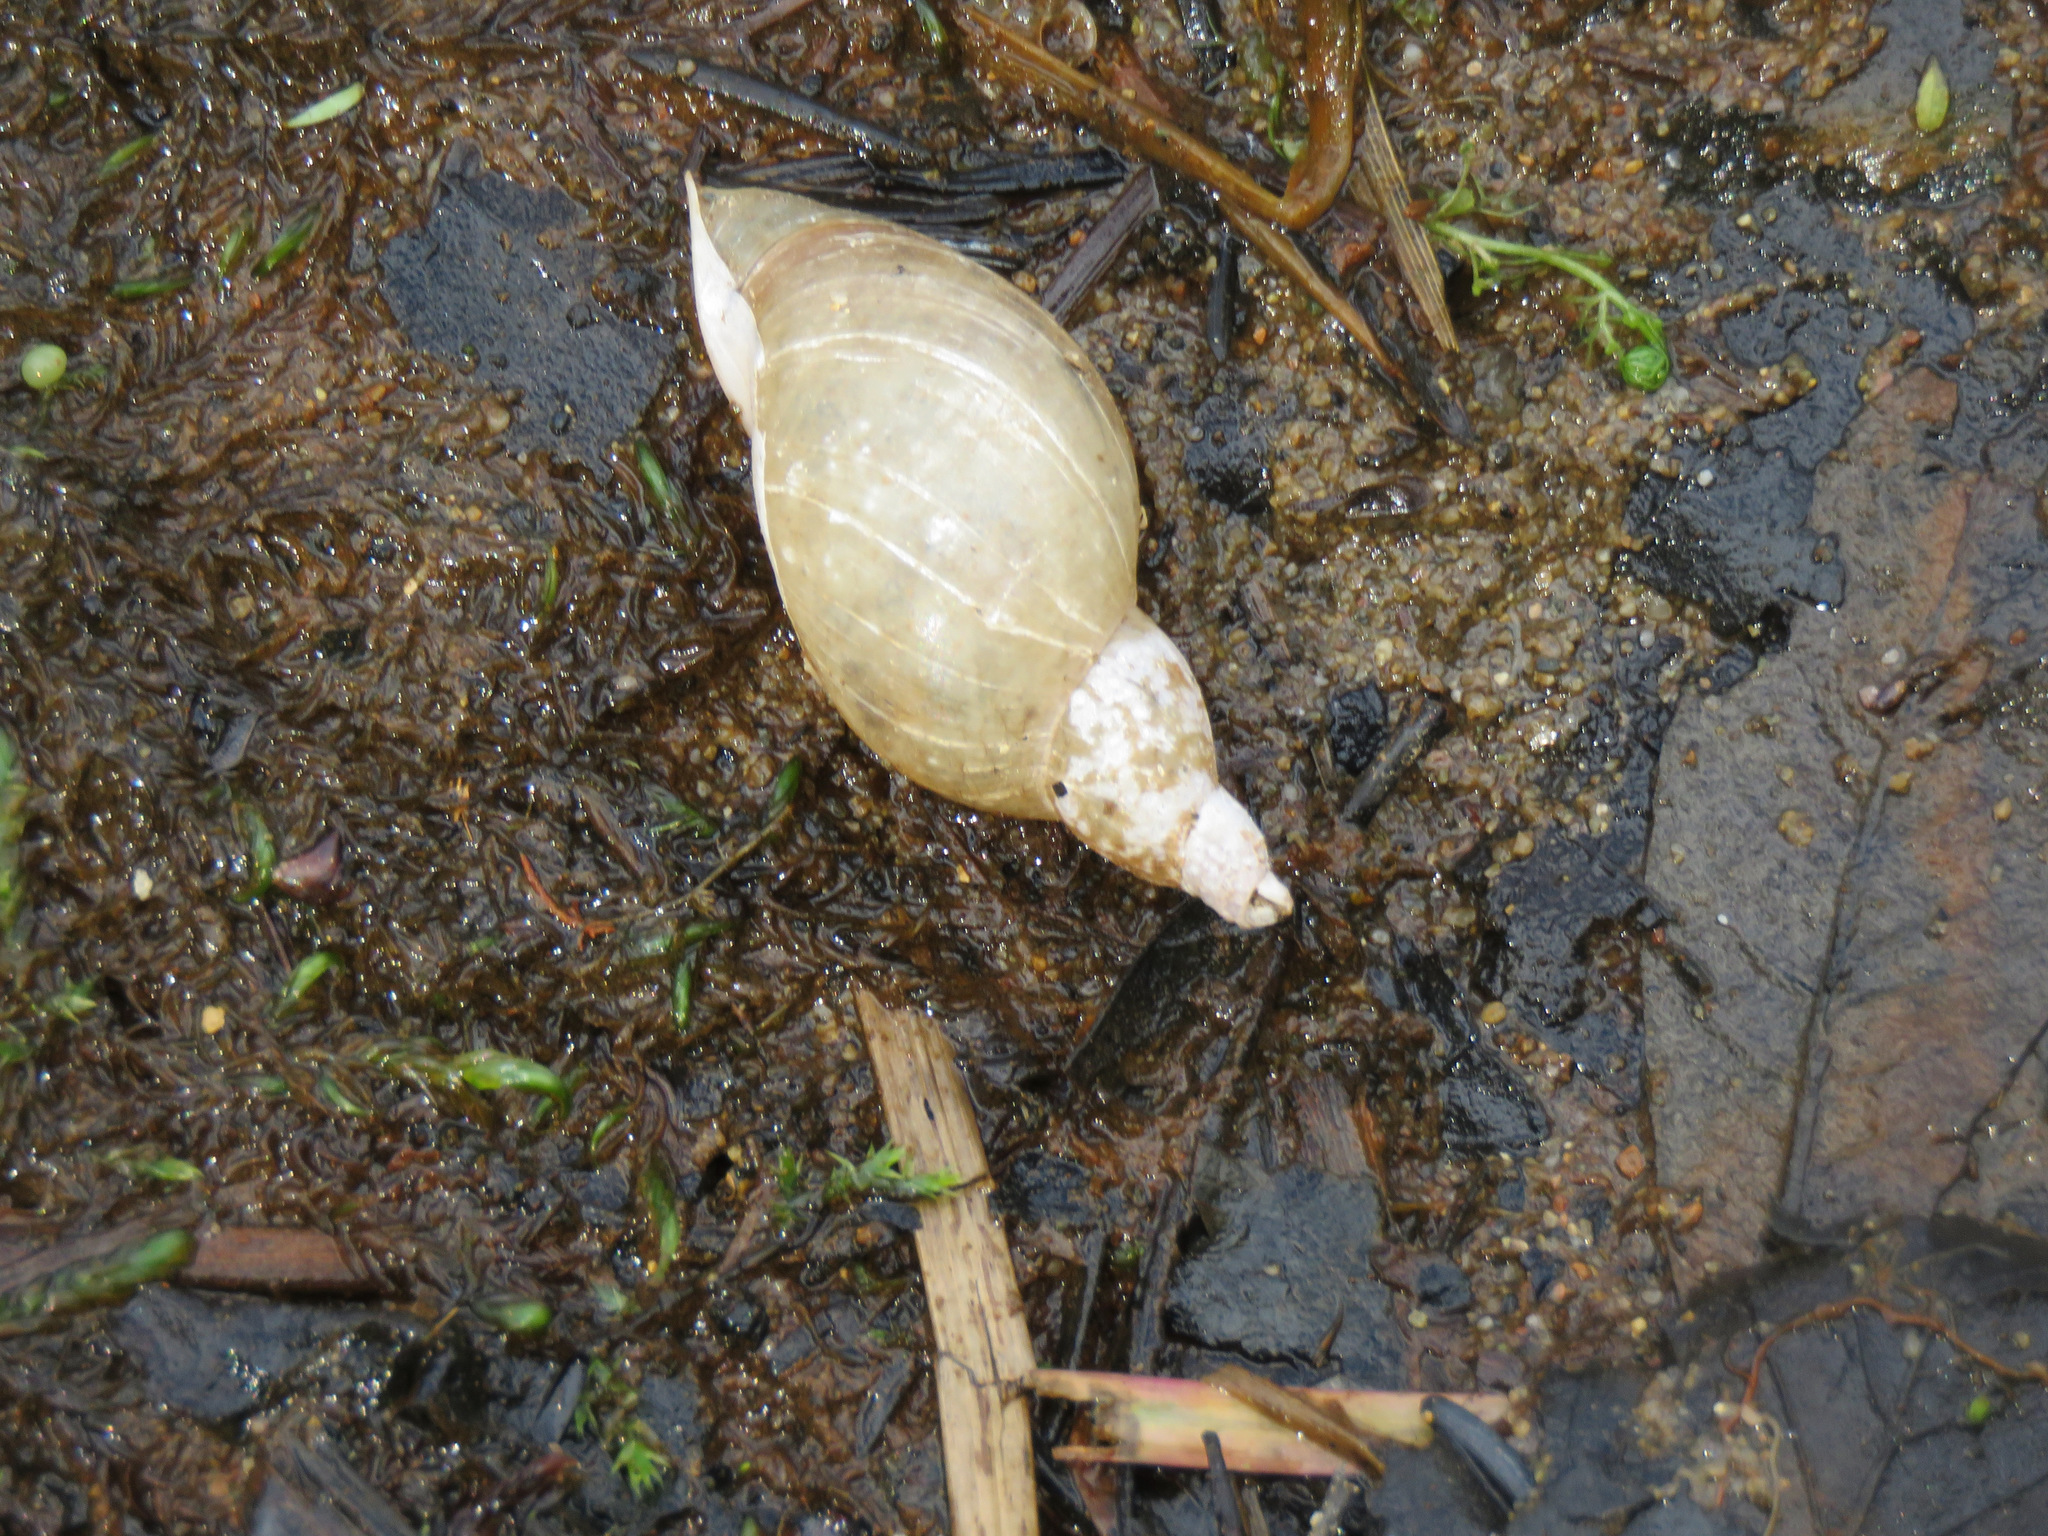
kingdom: Animalia
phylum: Mollusca
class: Gastropoda
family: Lymnaeidae
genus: Lymnaea
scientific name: Lymnaea stagnalis
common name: Great pond snail
